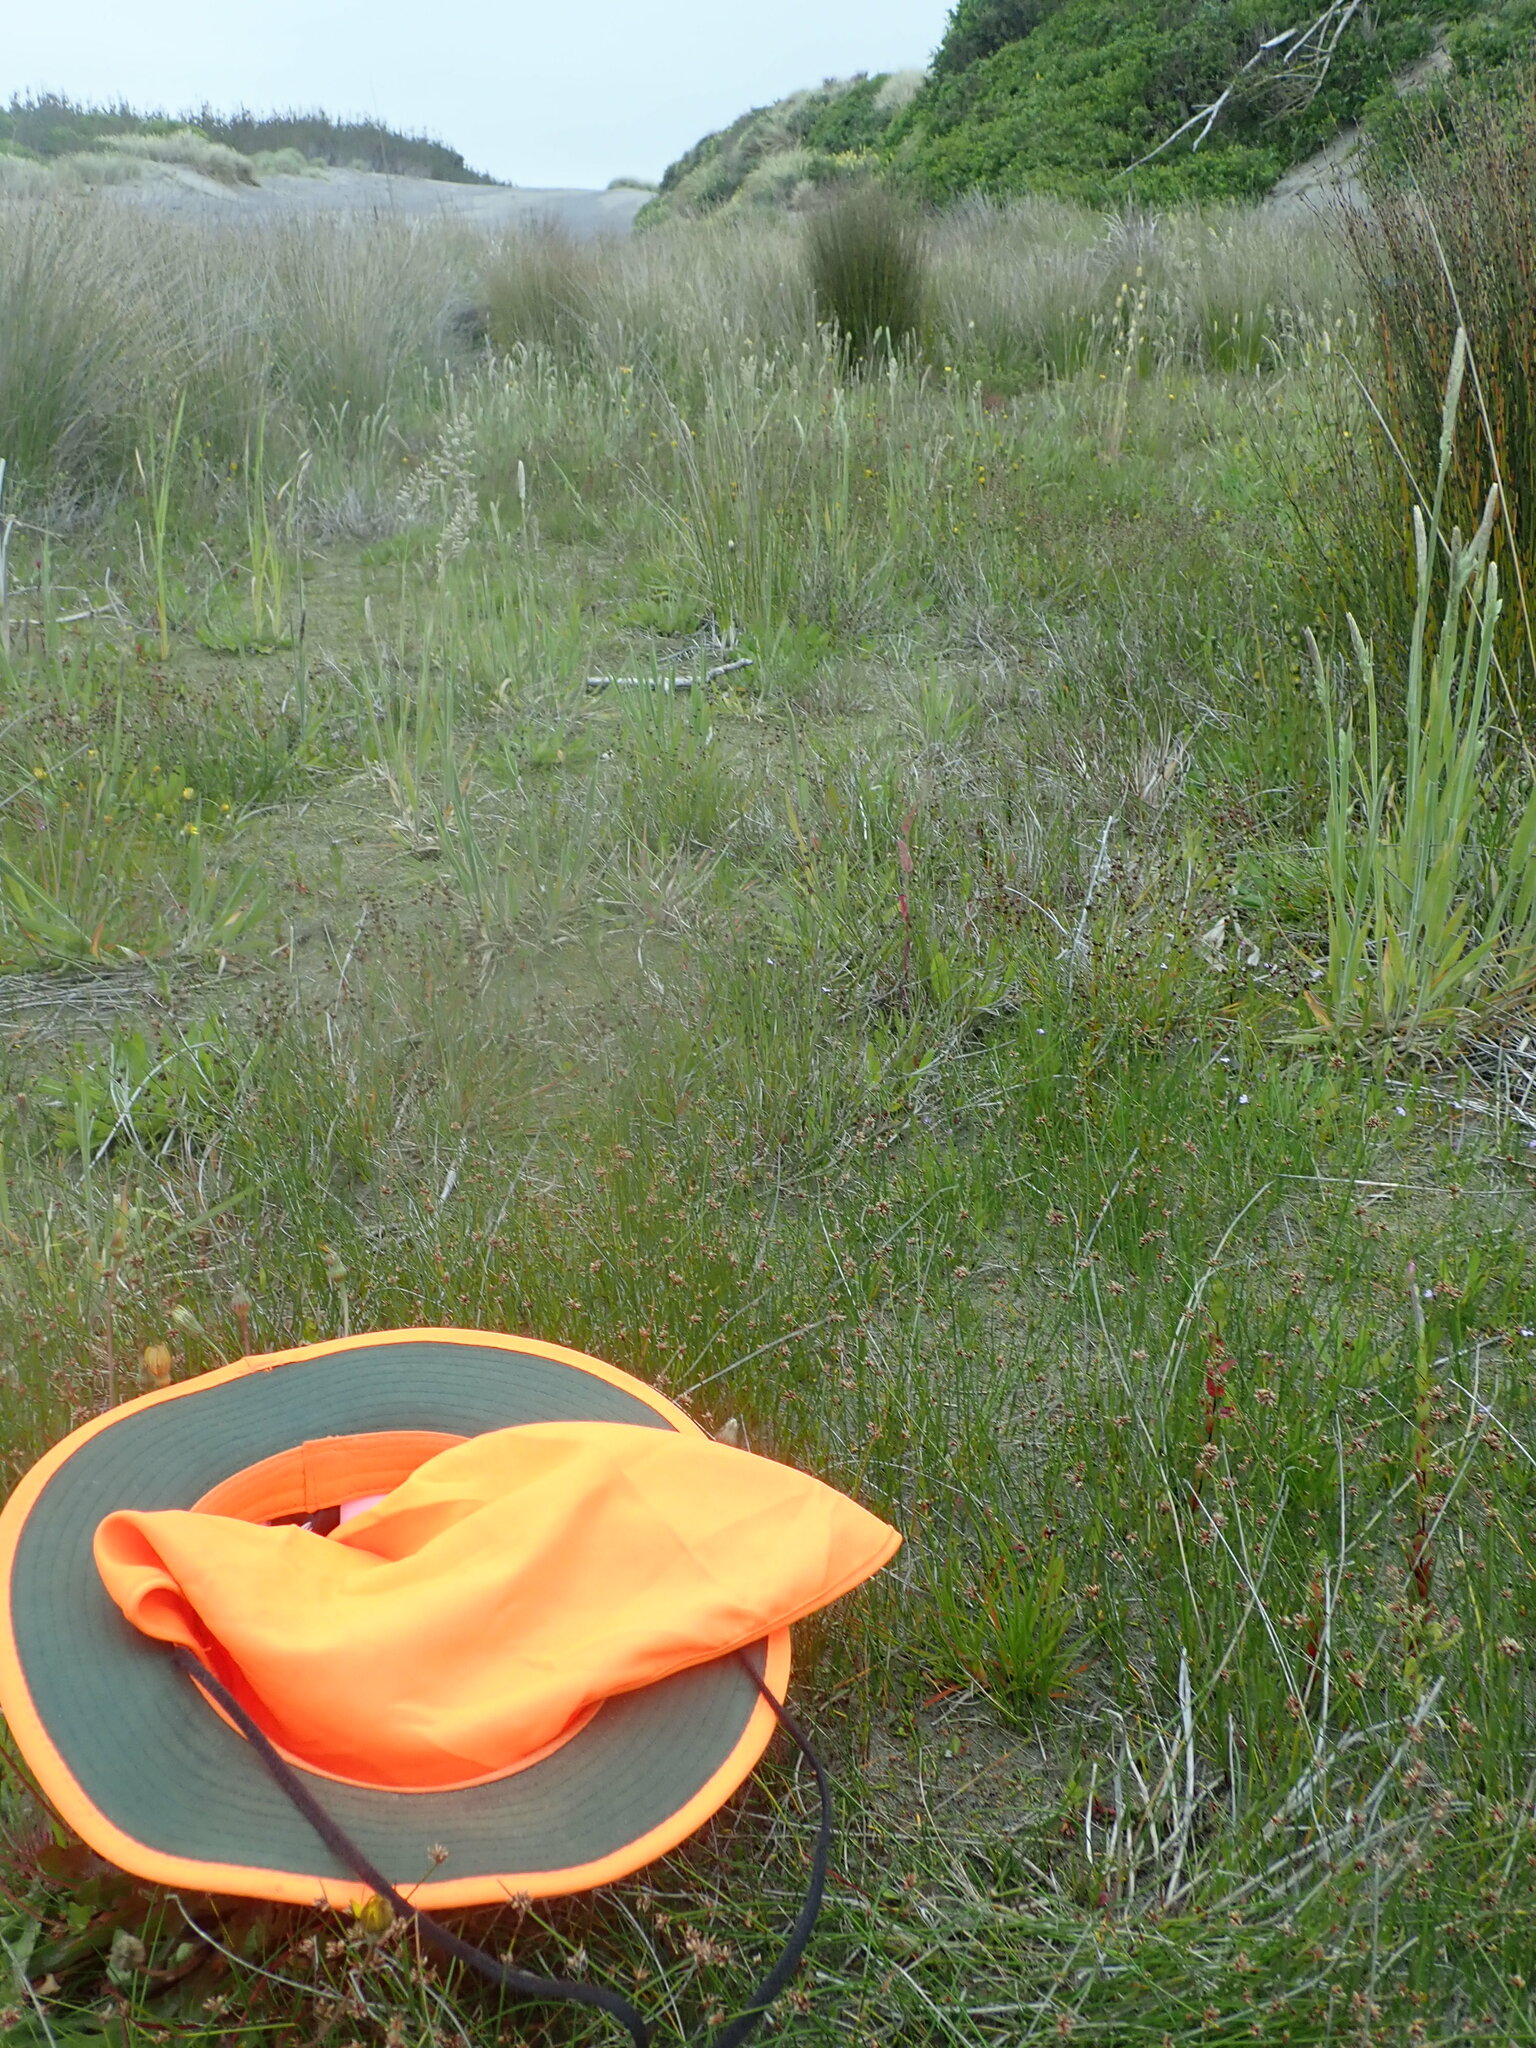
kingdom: Plantae
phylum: Tracheophyta
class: Magnoliopsida
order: Apiales
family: Apiaceae
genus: Lilaeopsis
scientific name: Lilaeopsis novae-zelandiae
